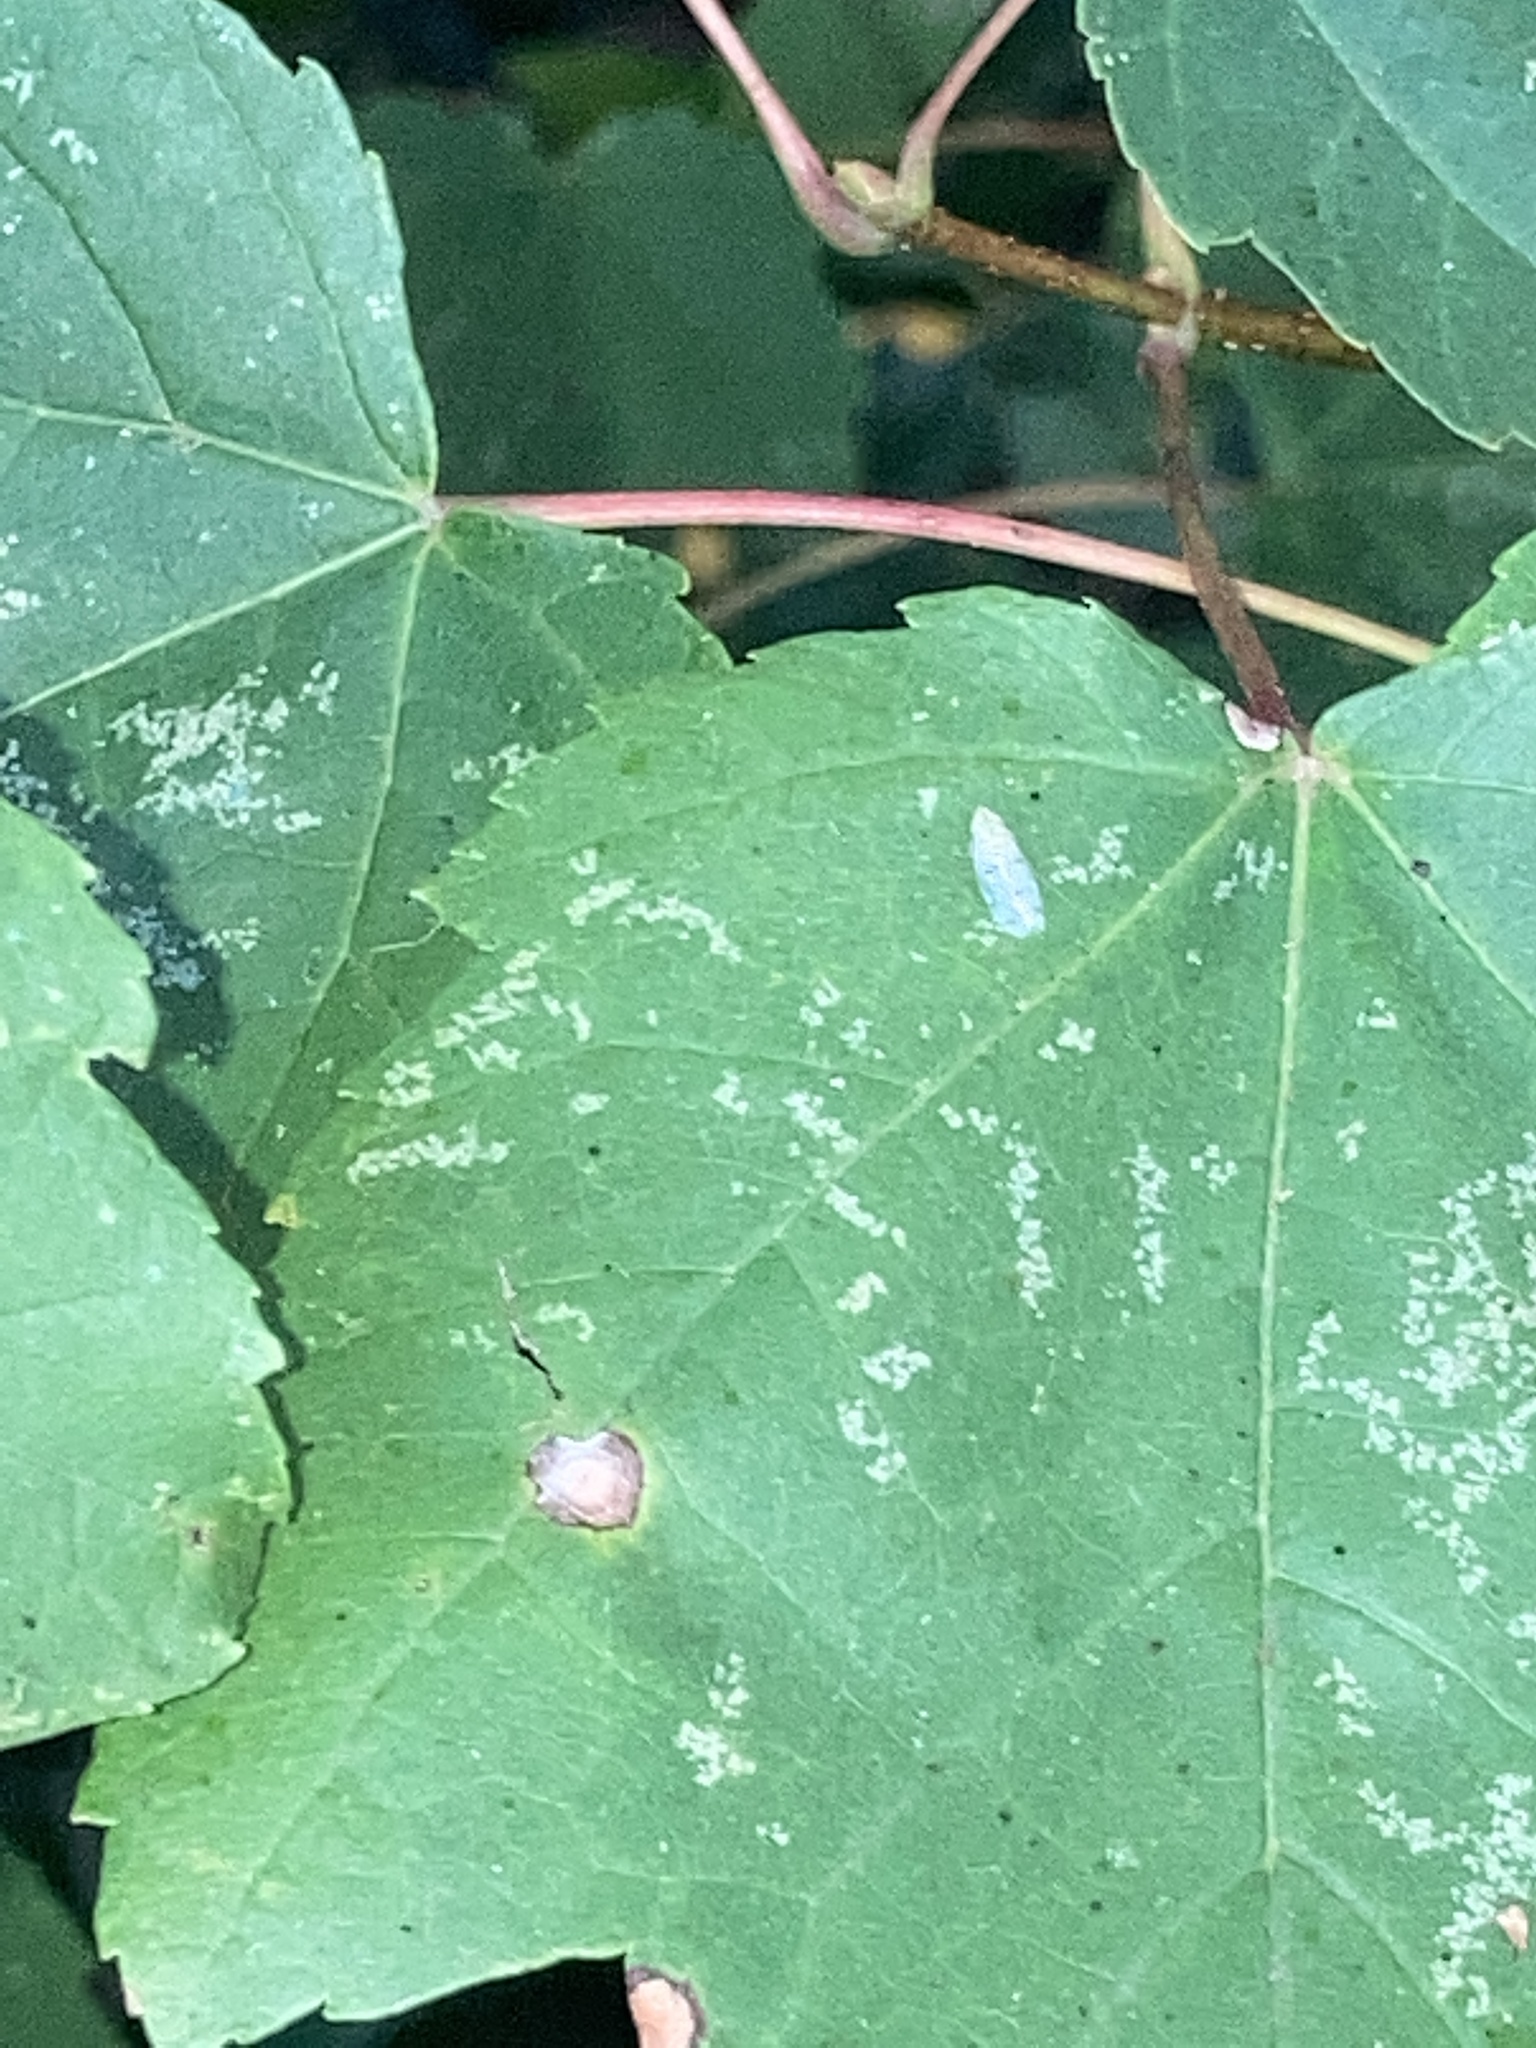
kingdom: Animalia
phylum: Arthropoda
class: Insecta
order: Hemiptera
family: Cicadellidae
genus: Japananus
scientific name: Japananus hyalinus
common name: The japanese maple leafhopper
